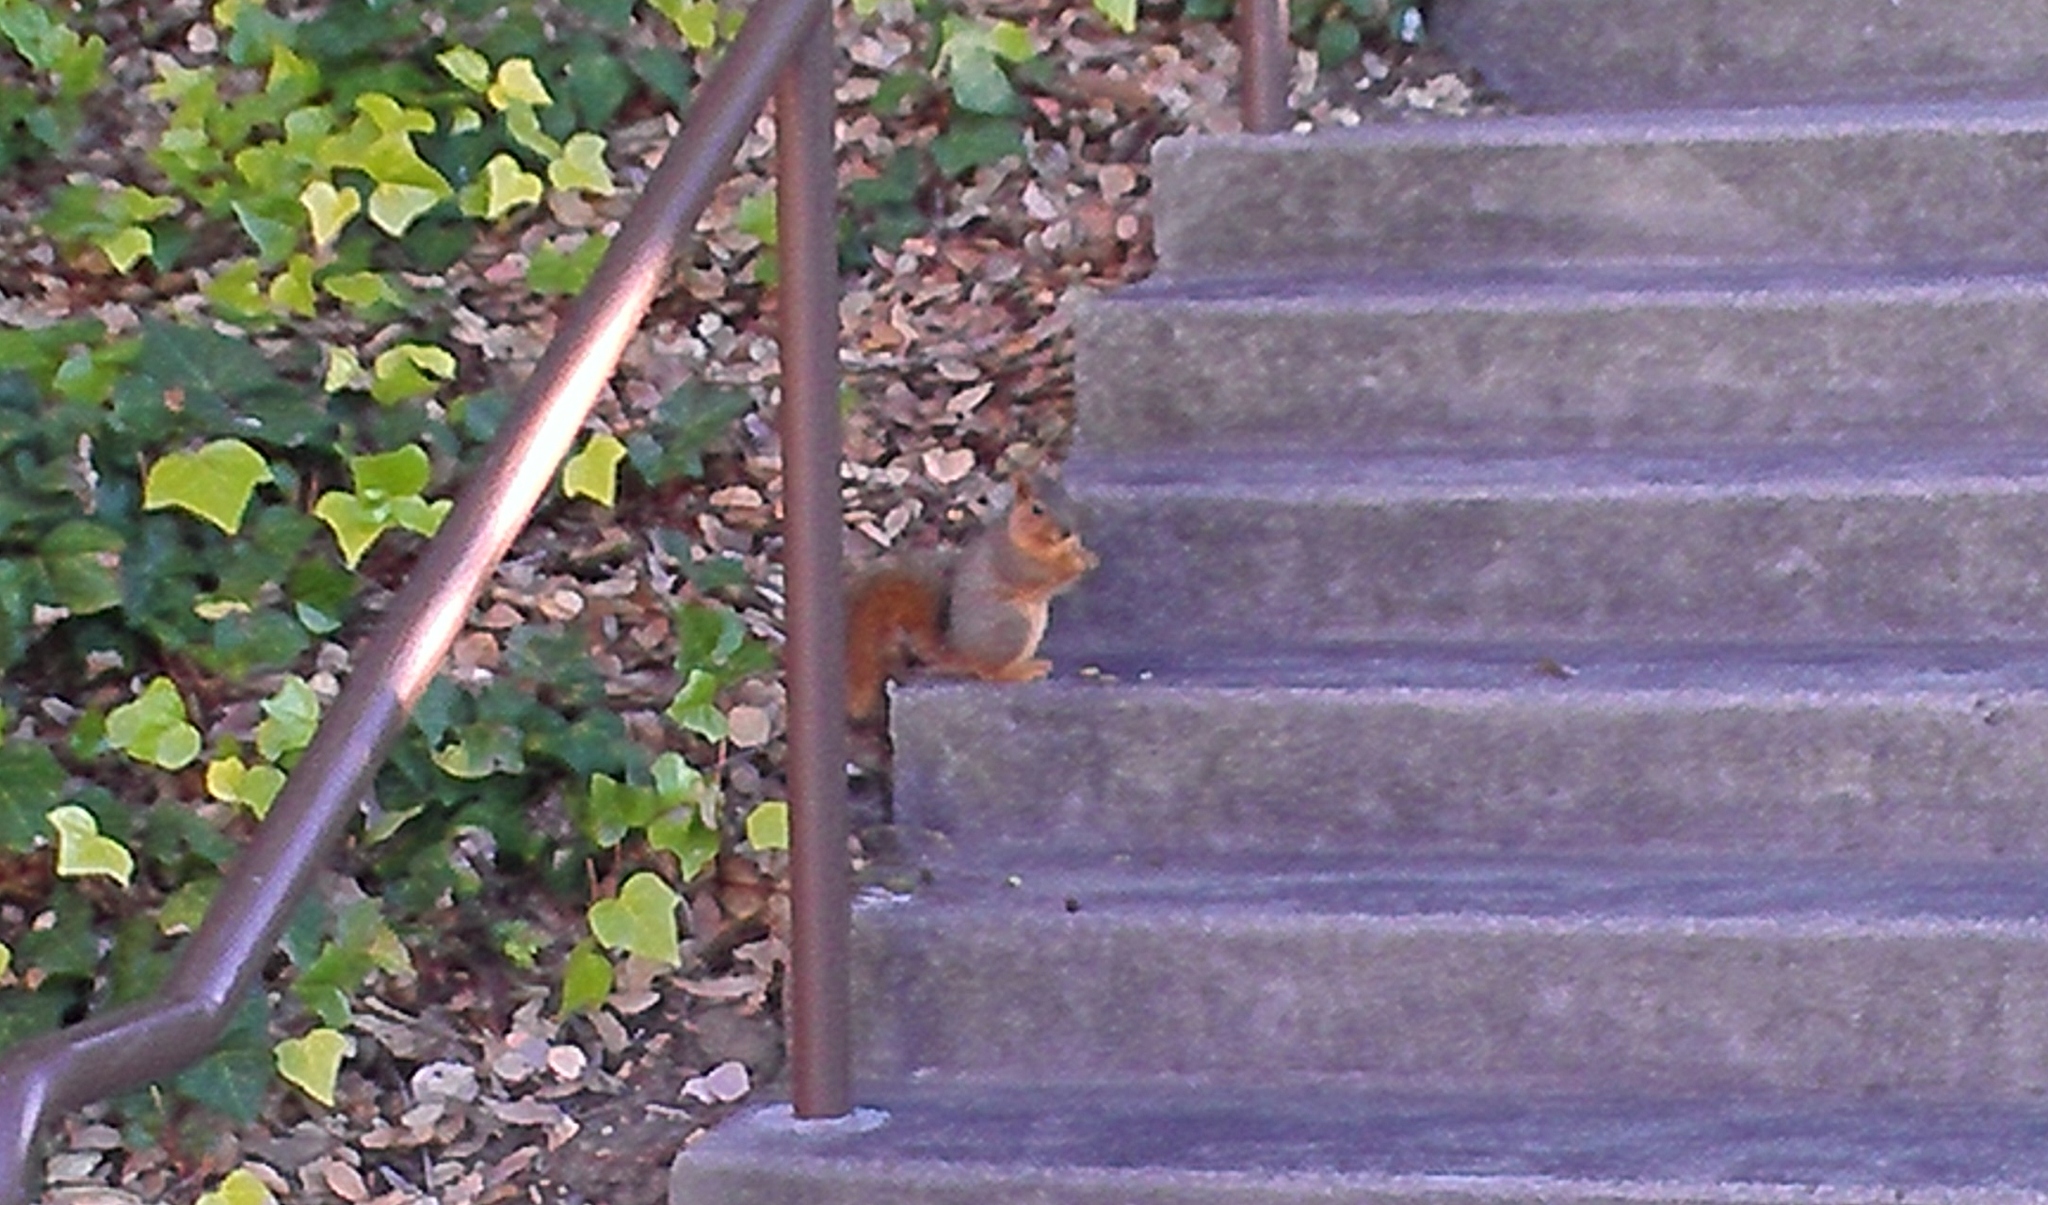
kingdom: Animalia
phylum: Chordata
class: Mammalia
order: Rodentia
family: Sciuridae
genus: Sciurus
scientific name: Sciurus niger
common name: Fox squirrel
